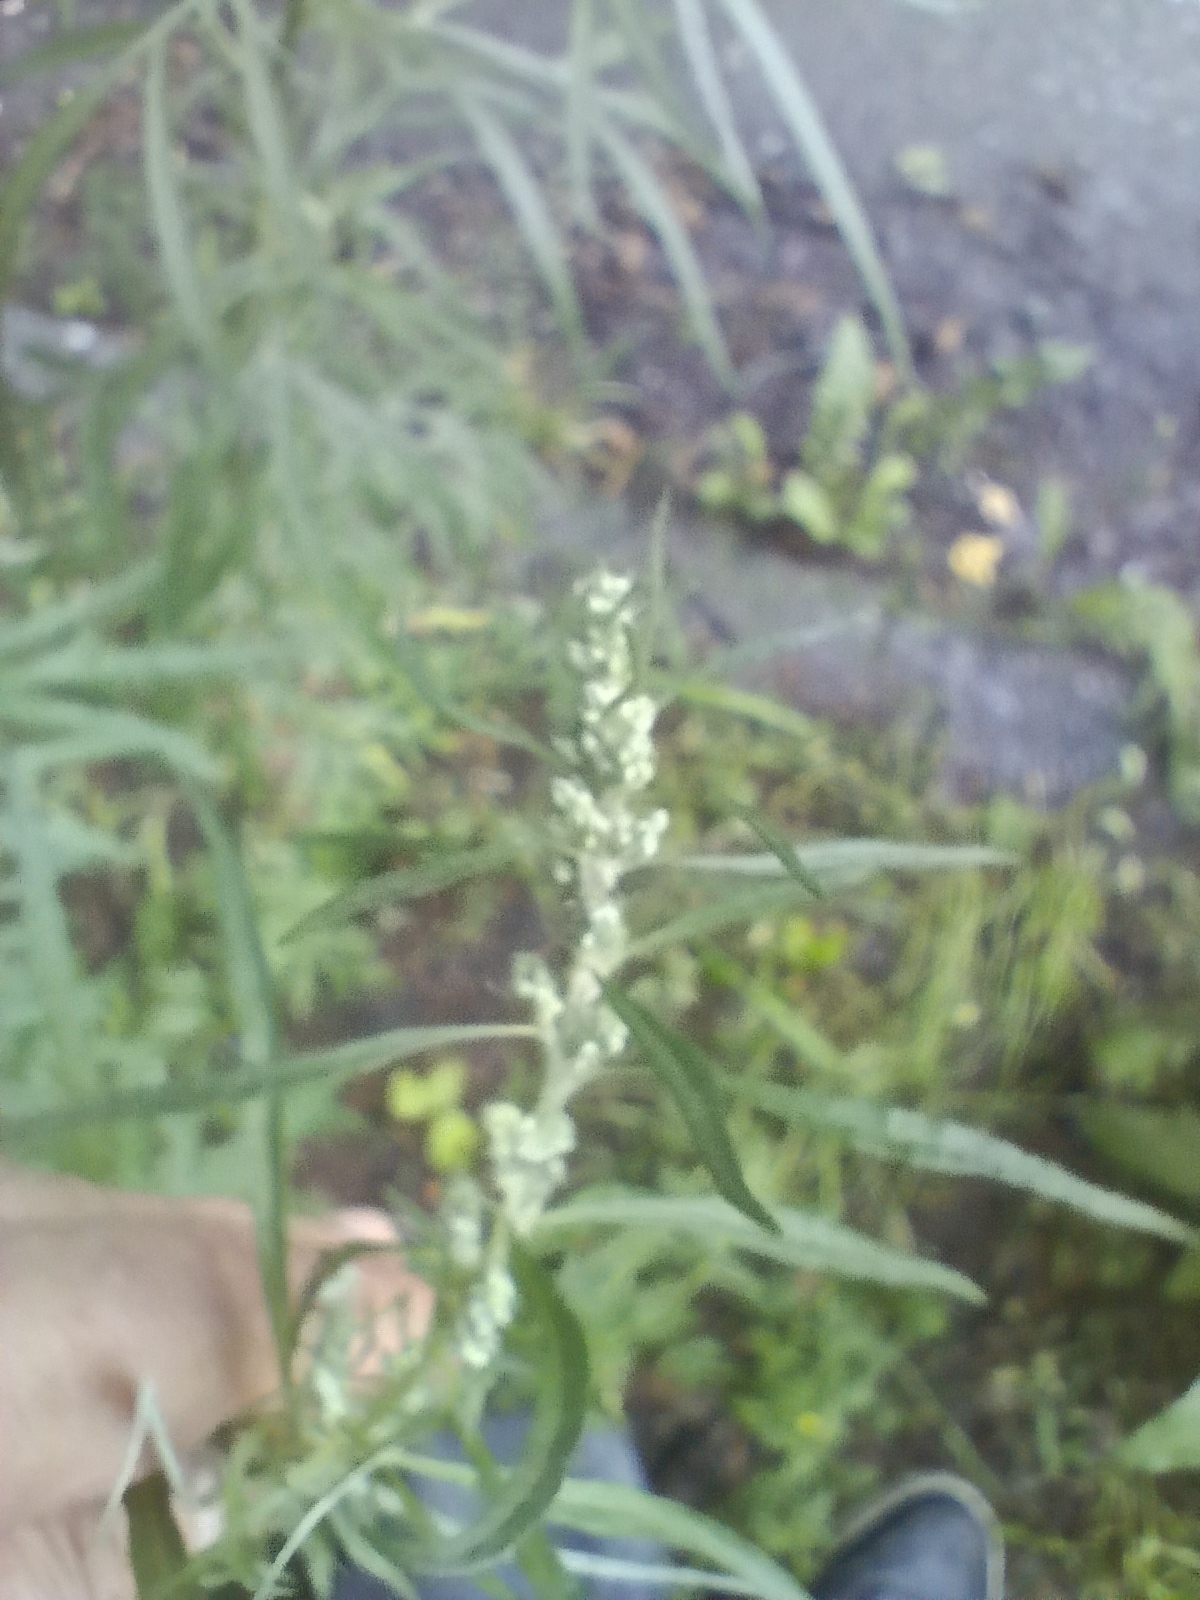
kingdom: Plantae
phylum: Tracheophyta
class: Magnoliopsida
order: Asterales
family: Asteraceae
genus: Artemisia
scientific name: Artemisia vulgaris
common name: Mugwort
